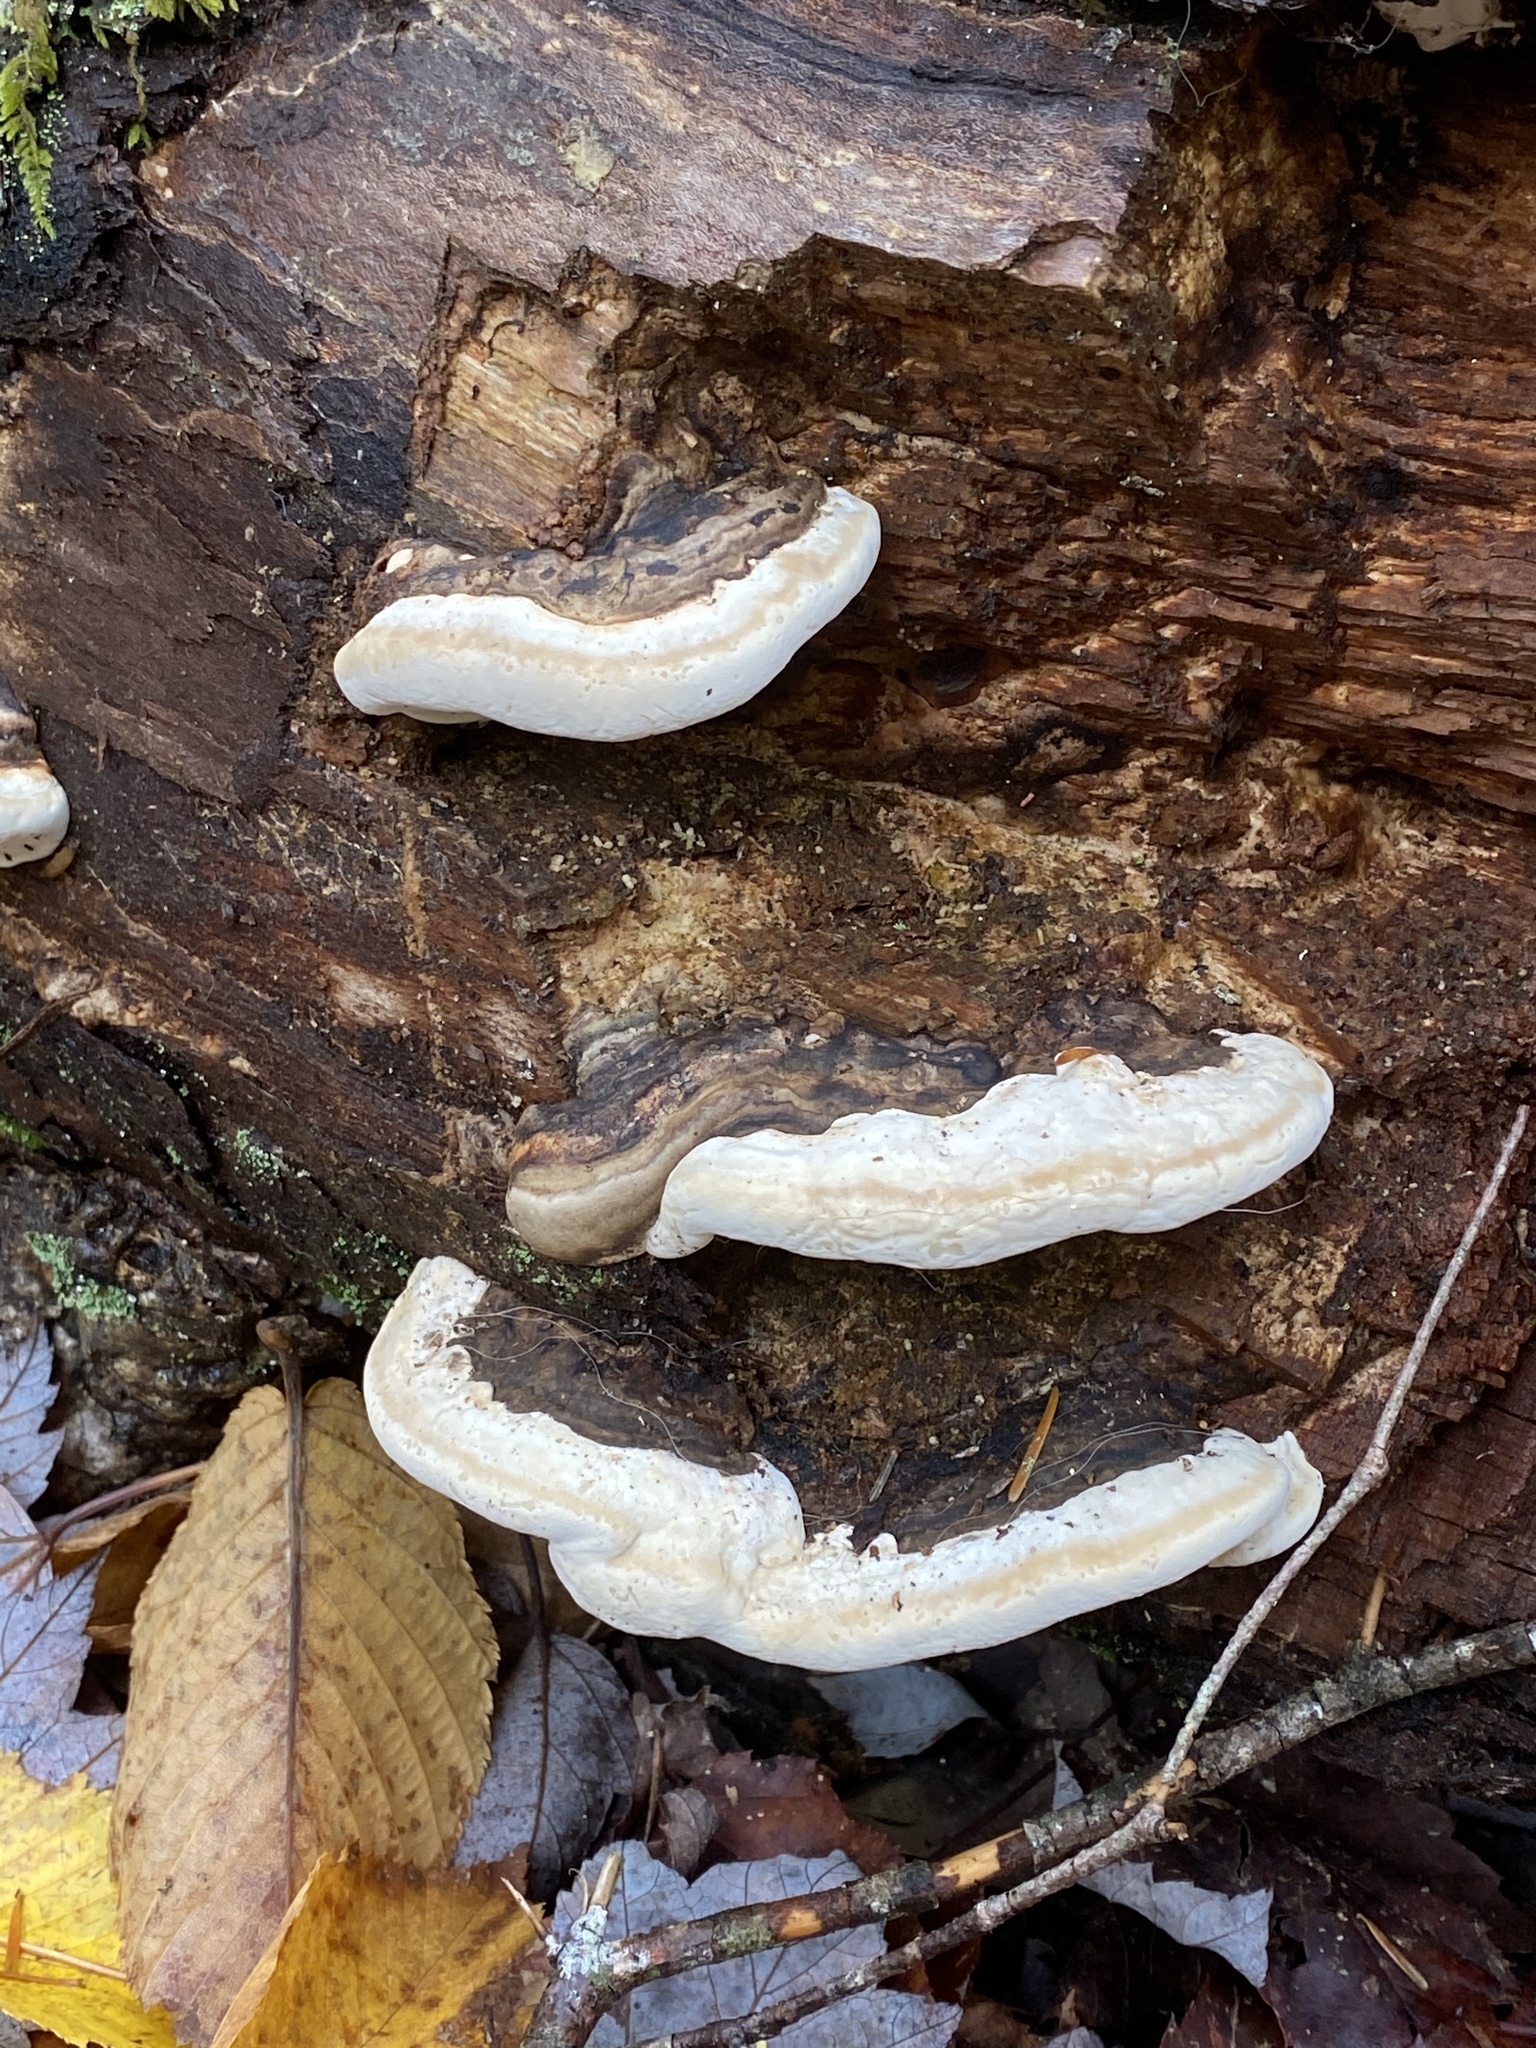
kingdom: Fungi
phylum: Basidiomycota
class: Agaricomycetes
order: Polyporales
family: Fomitopsidaceae
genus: Fomitopsis
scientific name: Fomitopsis ochracea
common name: American brown fomitopsis
